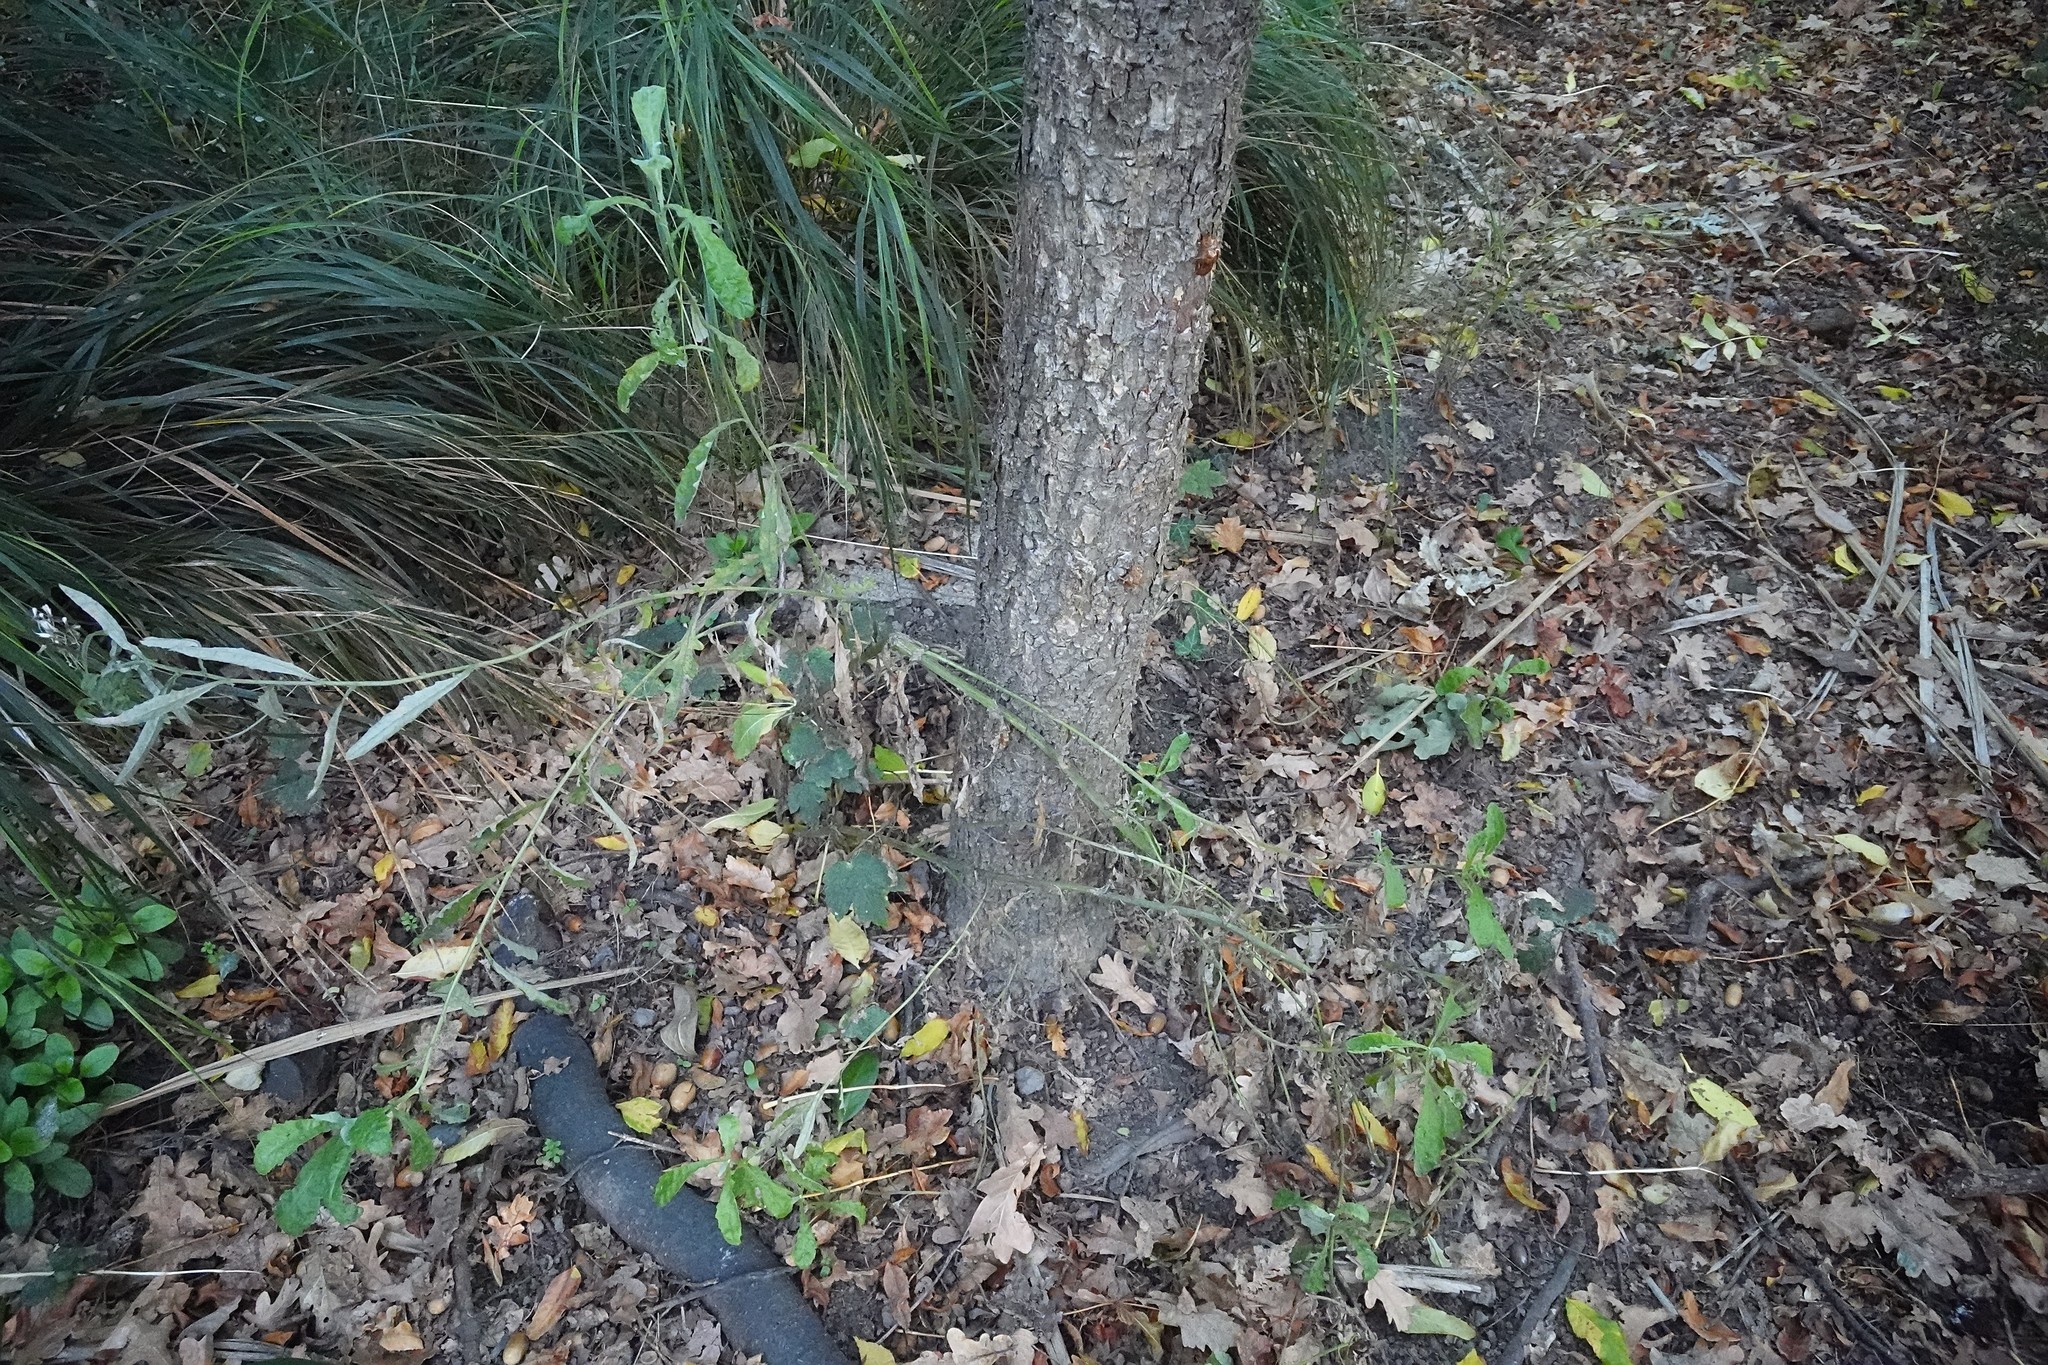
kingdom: Plantae
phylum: Tracheophyta
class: Magnoliopsida
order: Asterales
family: Asteraceae
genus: Senecio
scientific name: Senecio glomeratus
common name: Cutleaf burnweed
